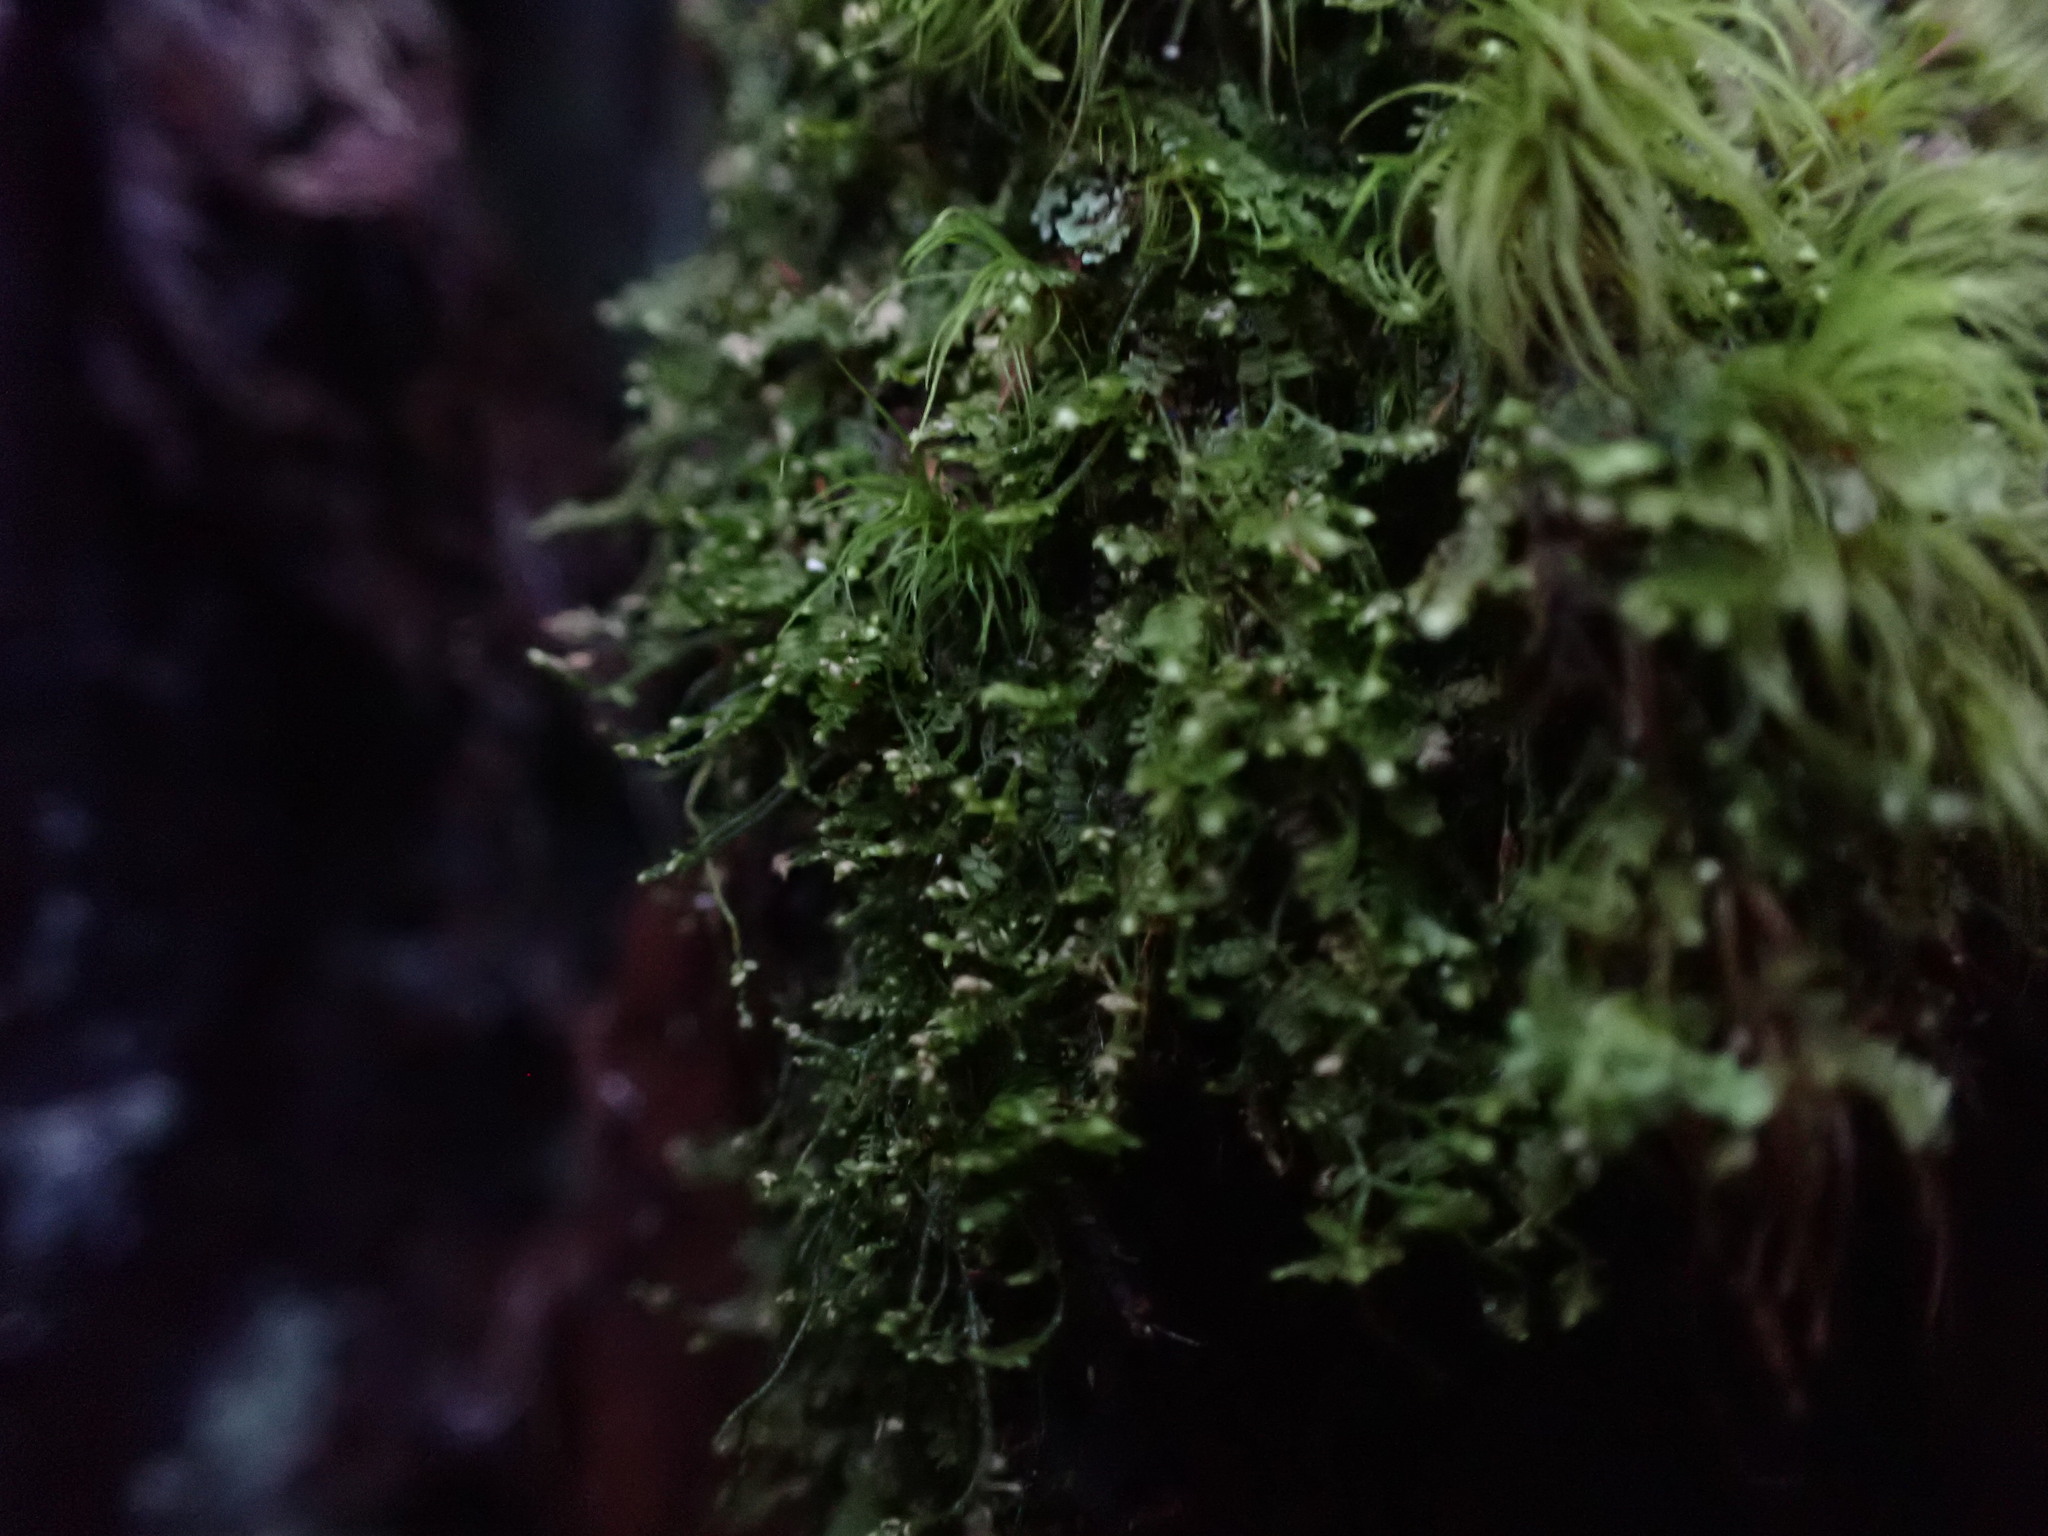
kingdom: Plantae
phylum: Marchantiophyta
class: Jungermanniopsida
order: Jungermanniales
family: Lepidoziaceae
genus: Bazzania
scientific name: Bazzania denudata
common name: Naked whipwort
